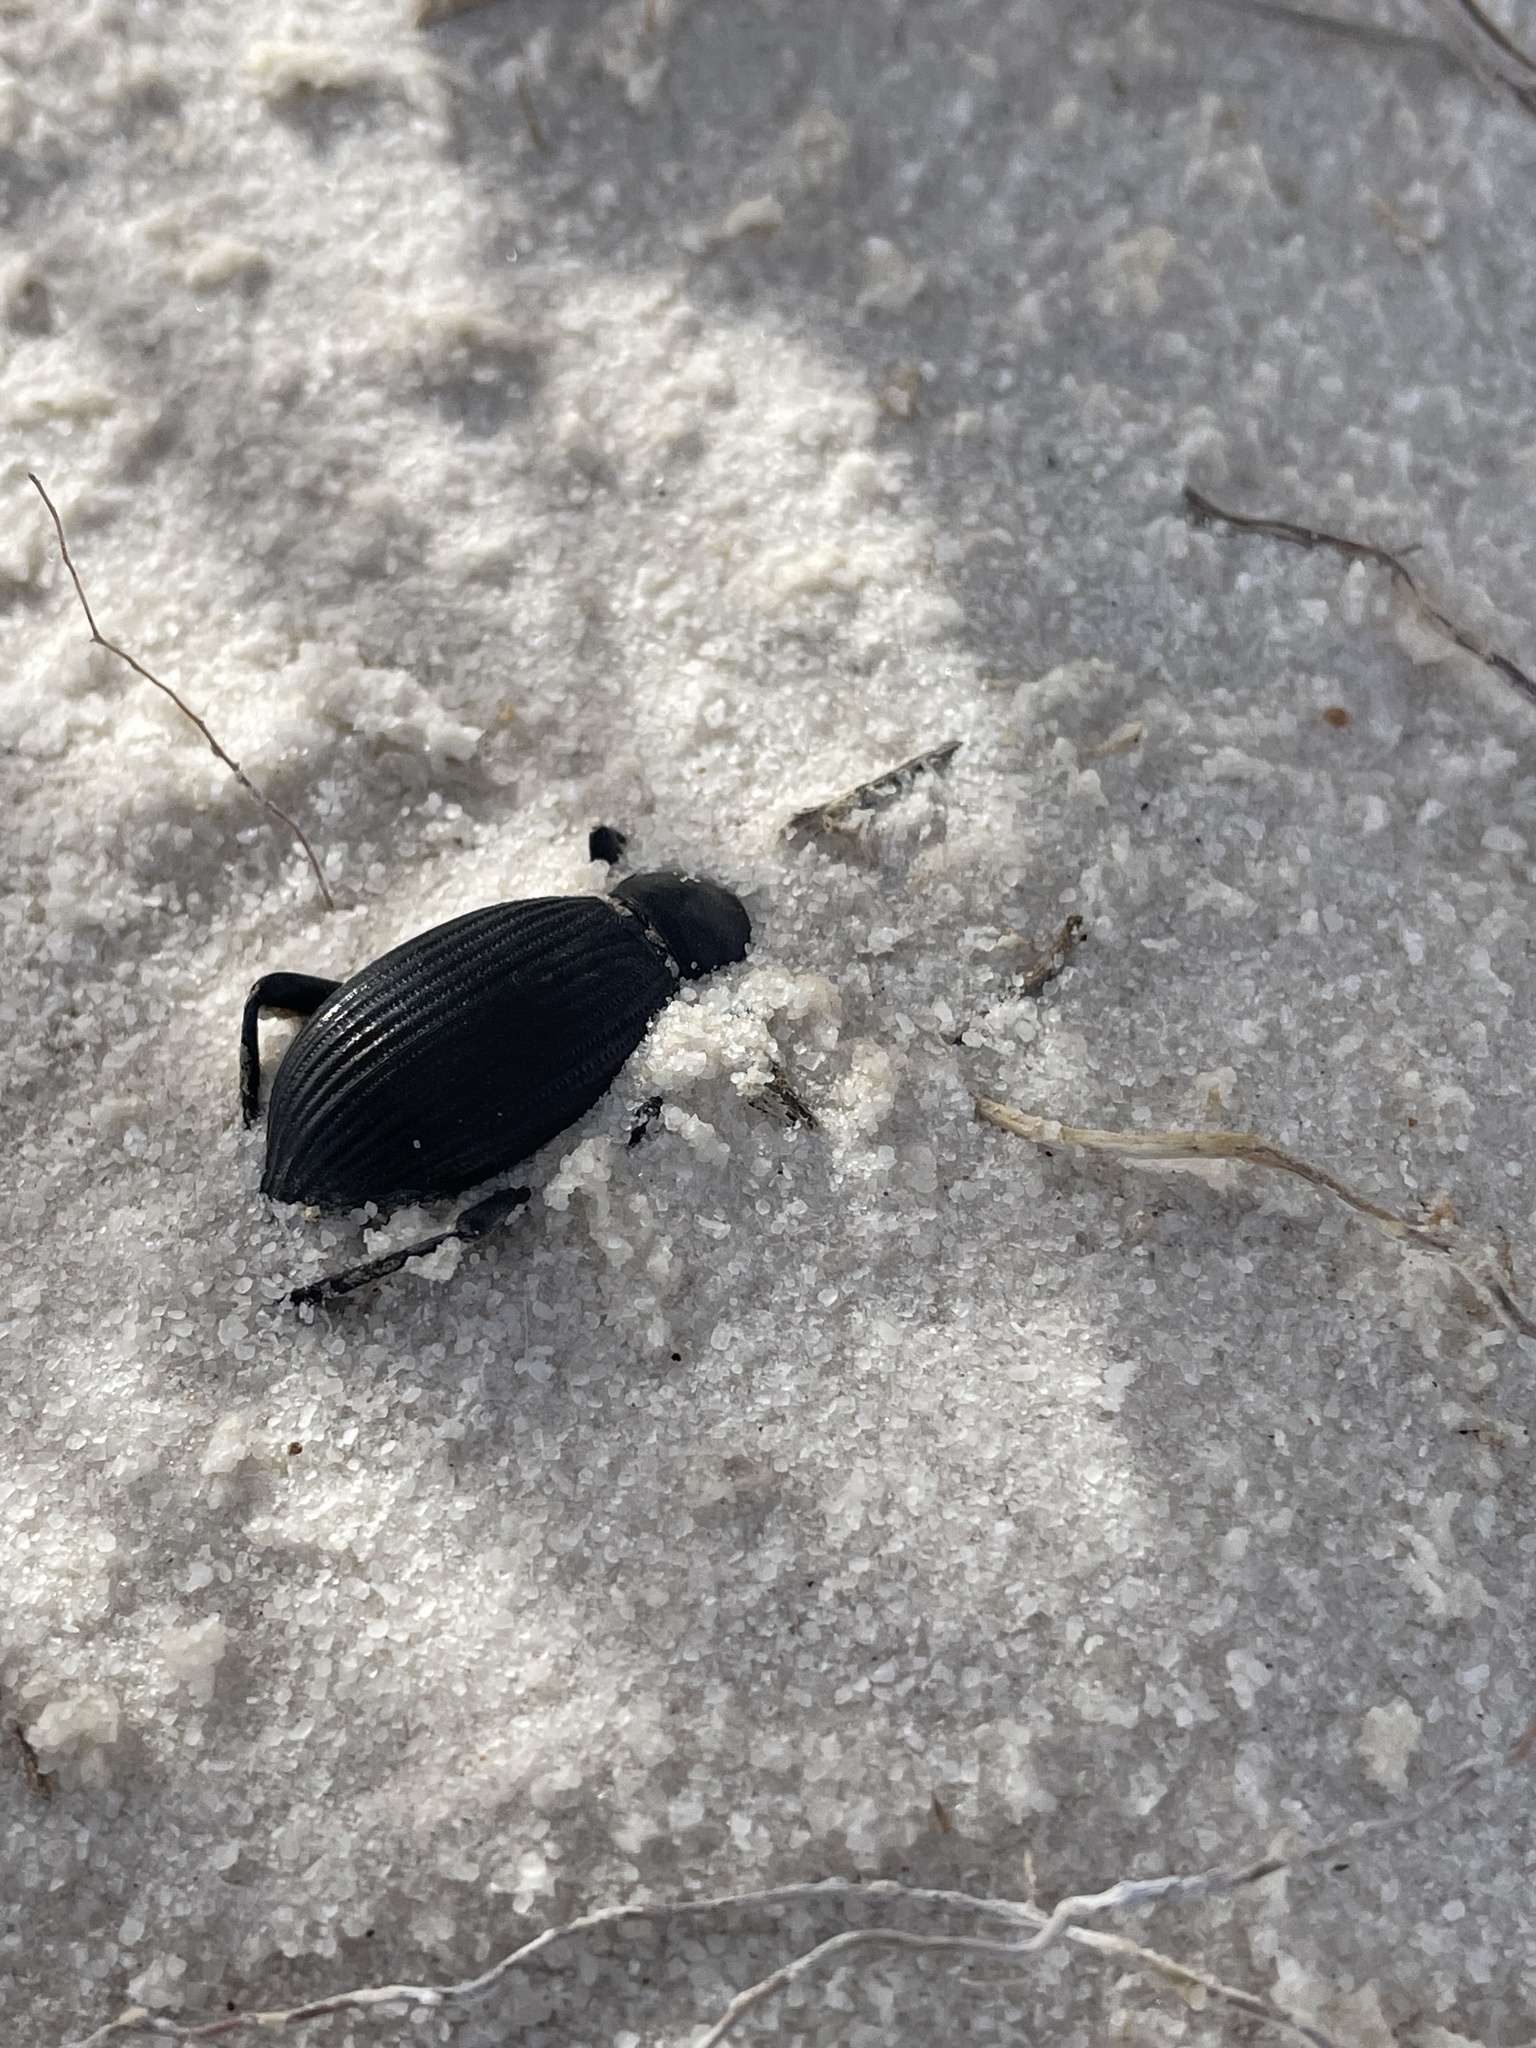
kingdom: Animalia
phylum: Arthropoda
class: Insecta
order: Coleoptera
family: Tenebrionidae
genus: Eleodes
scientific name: Eleodes hispilabris
